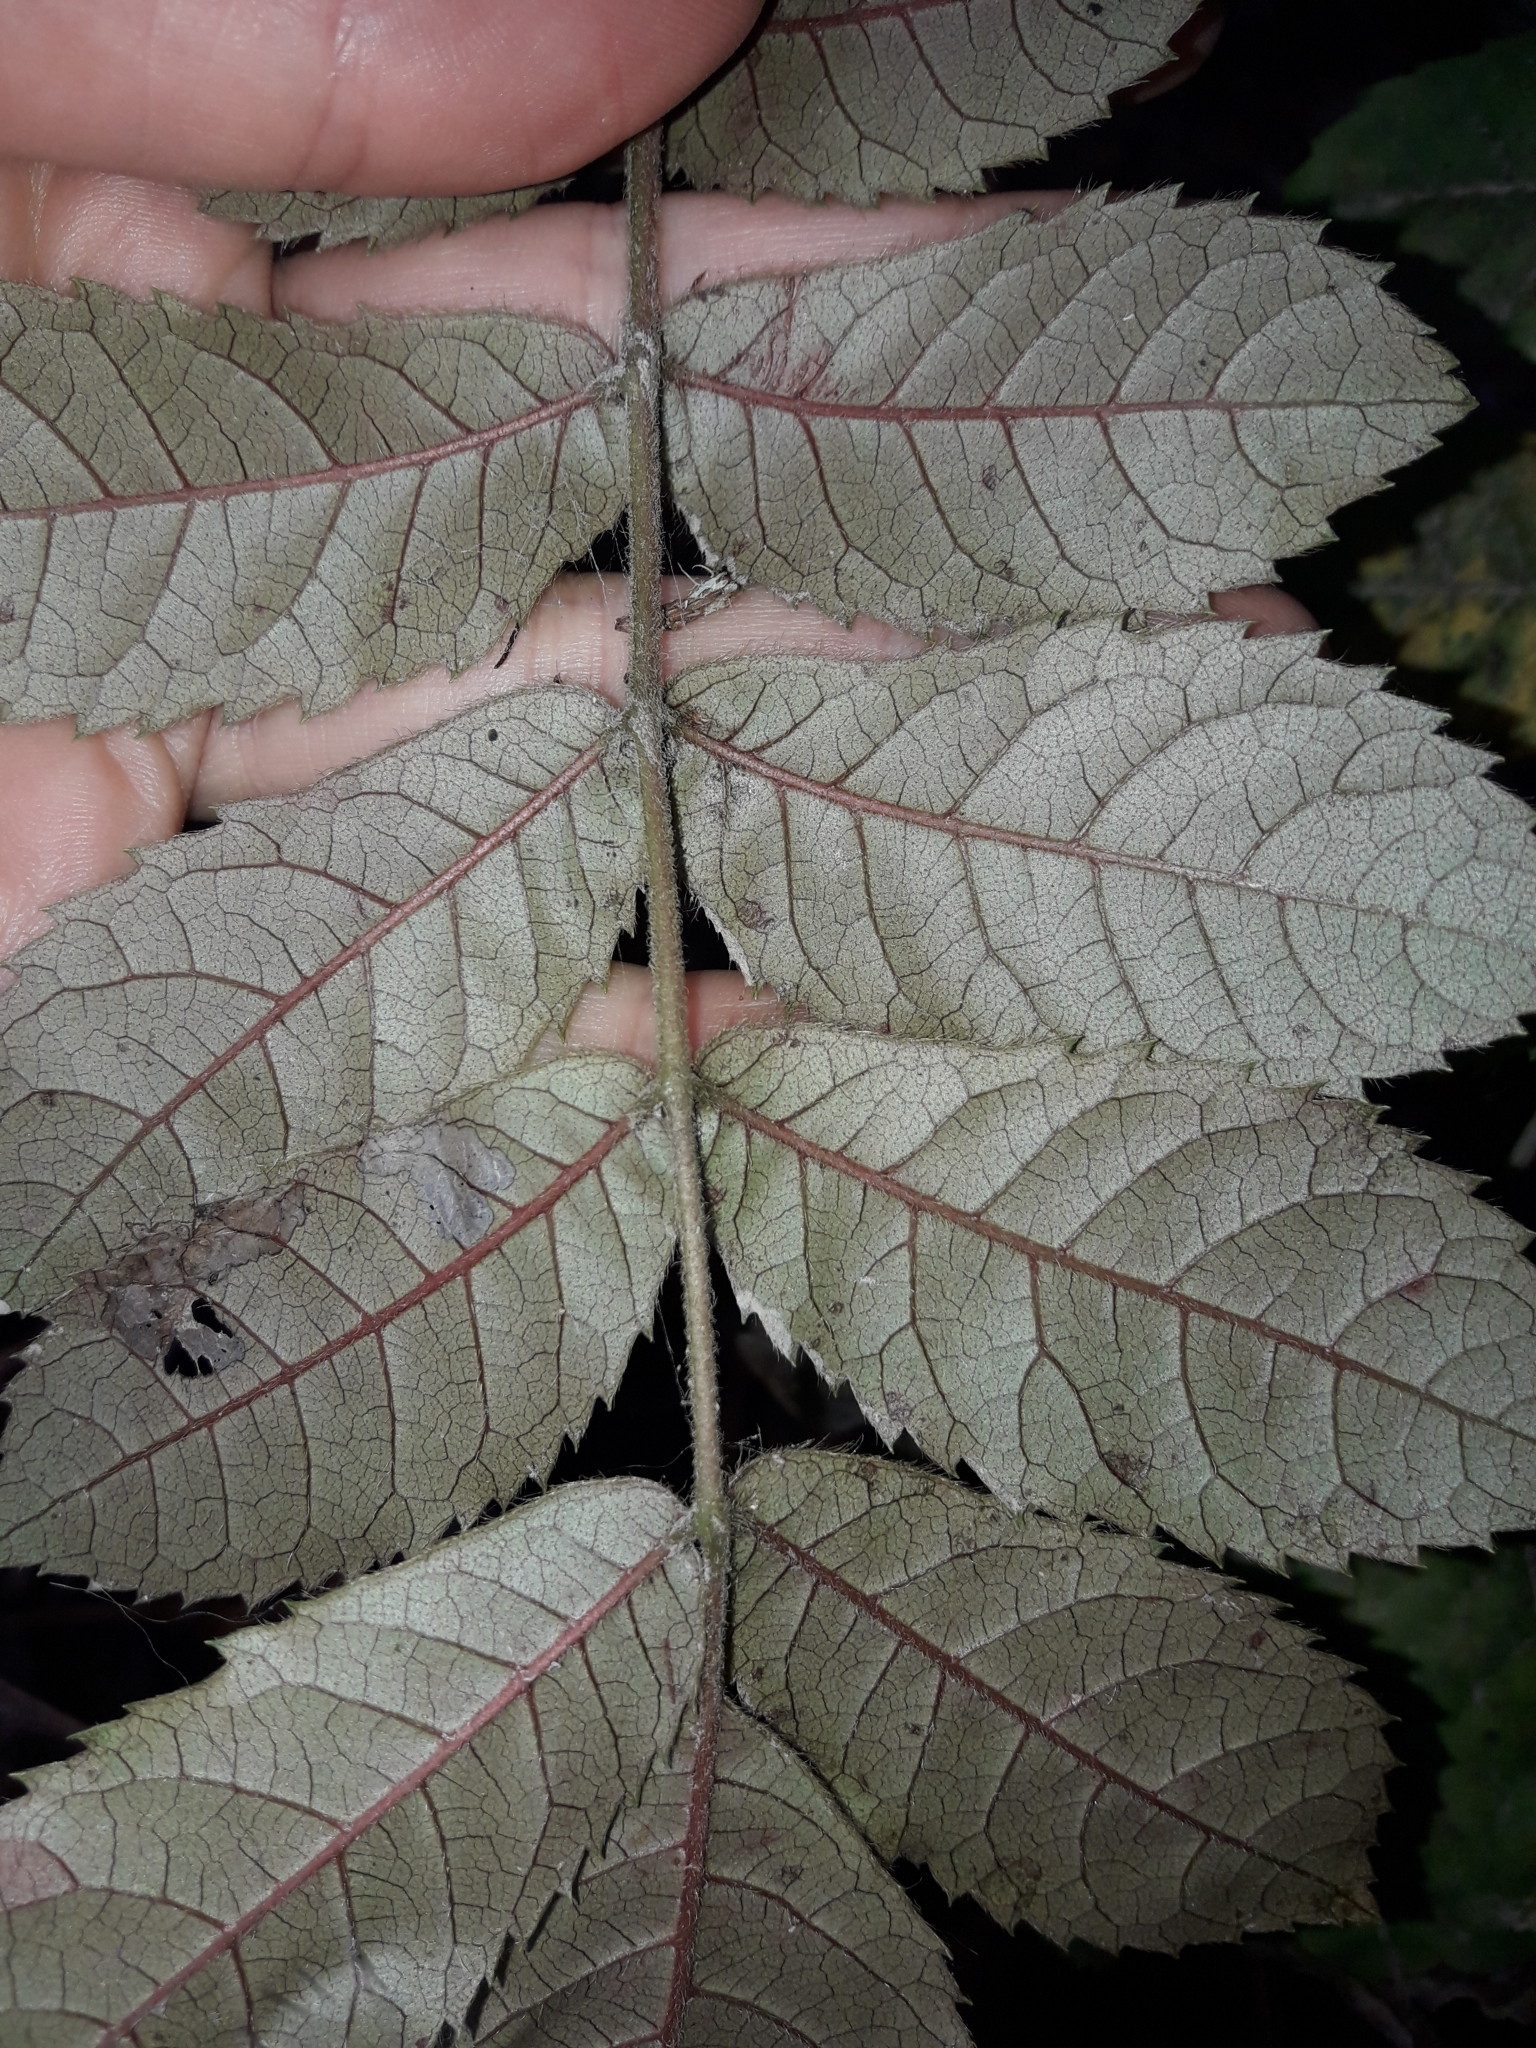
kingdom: Plantae
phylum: Tracheophyta
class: Magnoliopsida
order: Oxalidales
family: Cunoniaceae
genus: Ackama
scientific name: Ackama rosifolia
